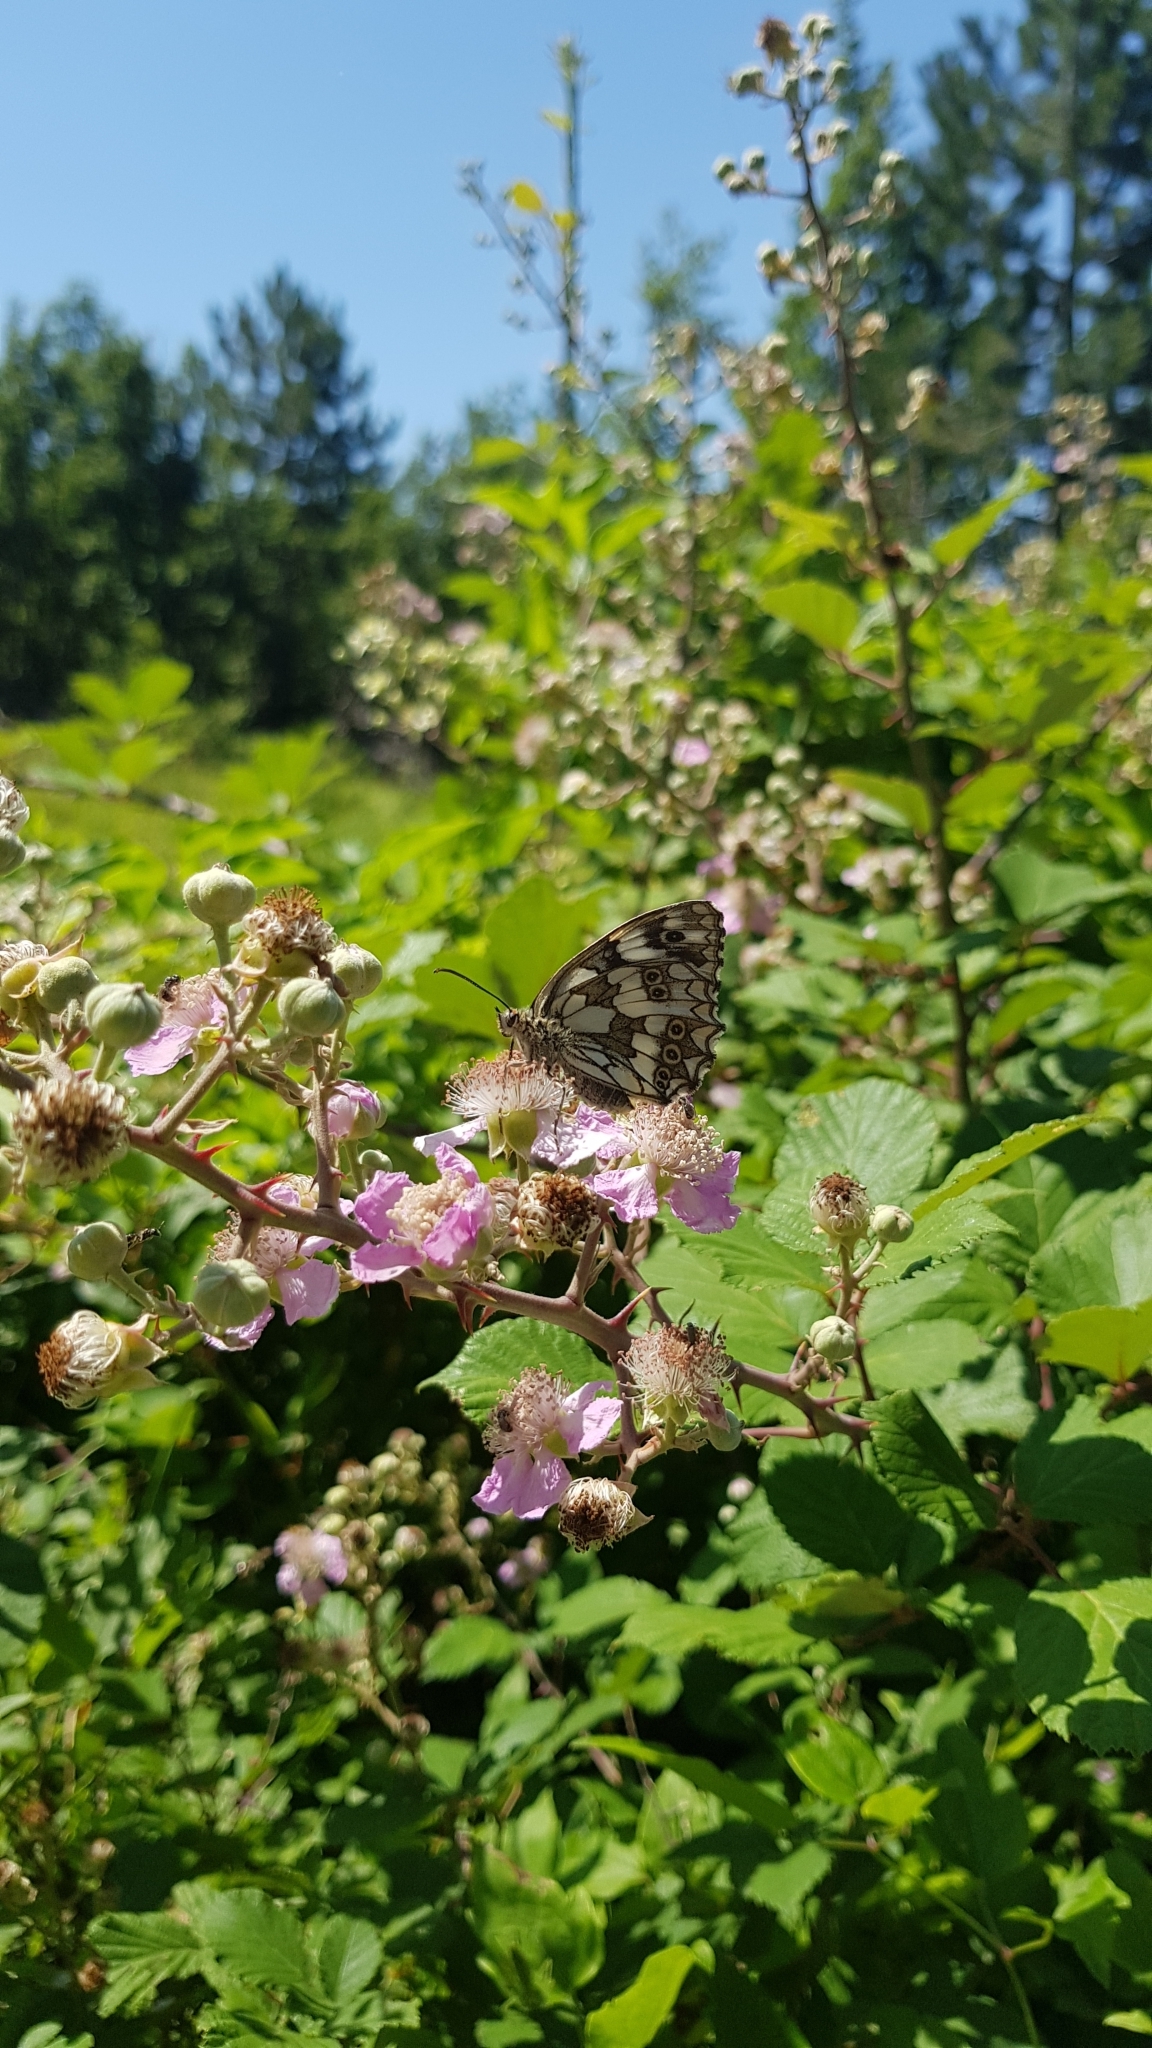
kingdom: Animalia
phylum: Arthropoda
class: Insecta
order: Lepidoptera
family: Nymphalidae
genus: Melanargia
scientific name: Melanargia galathea
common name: Marbled white
